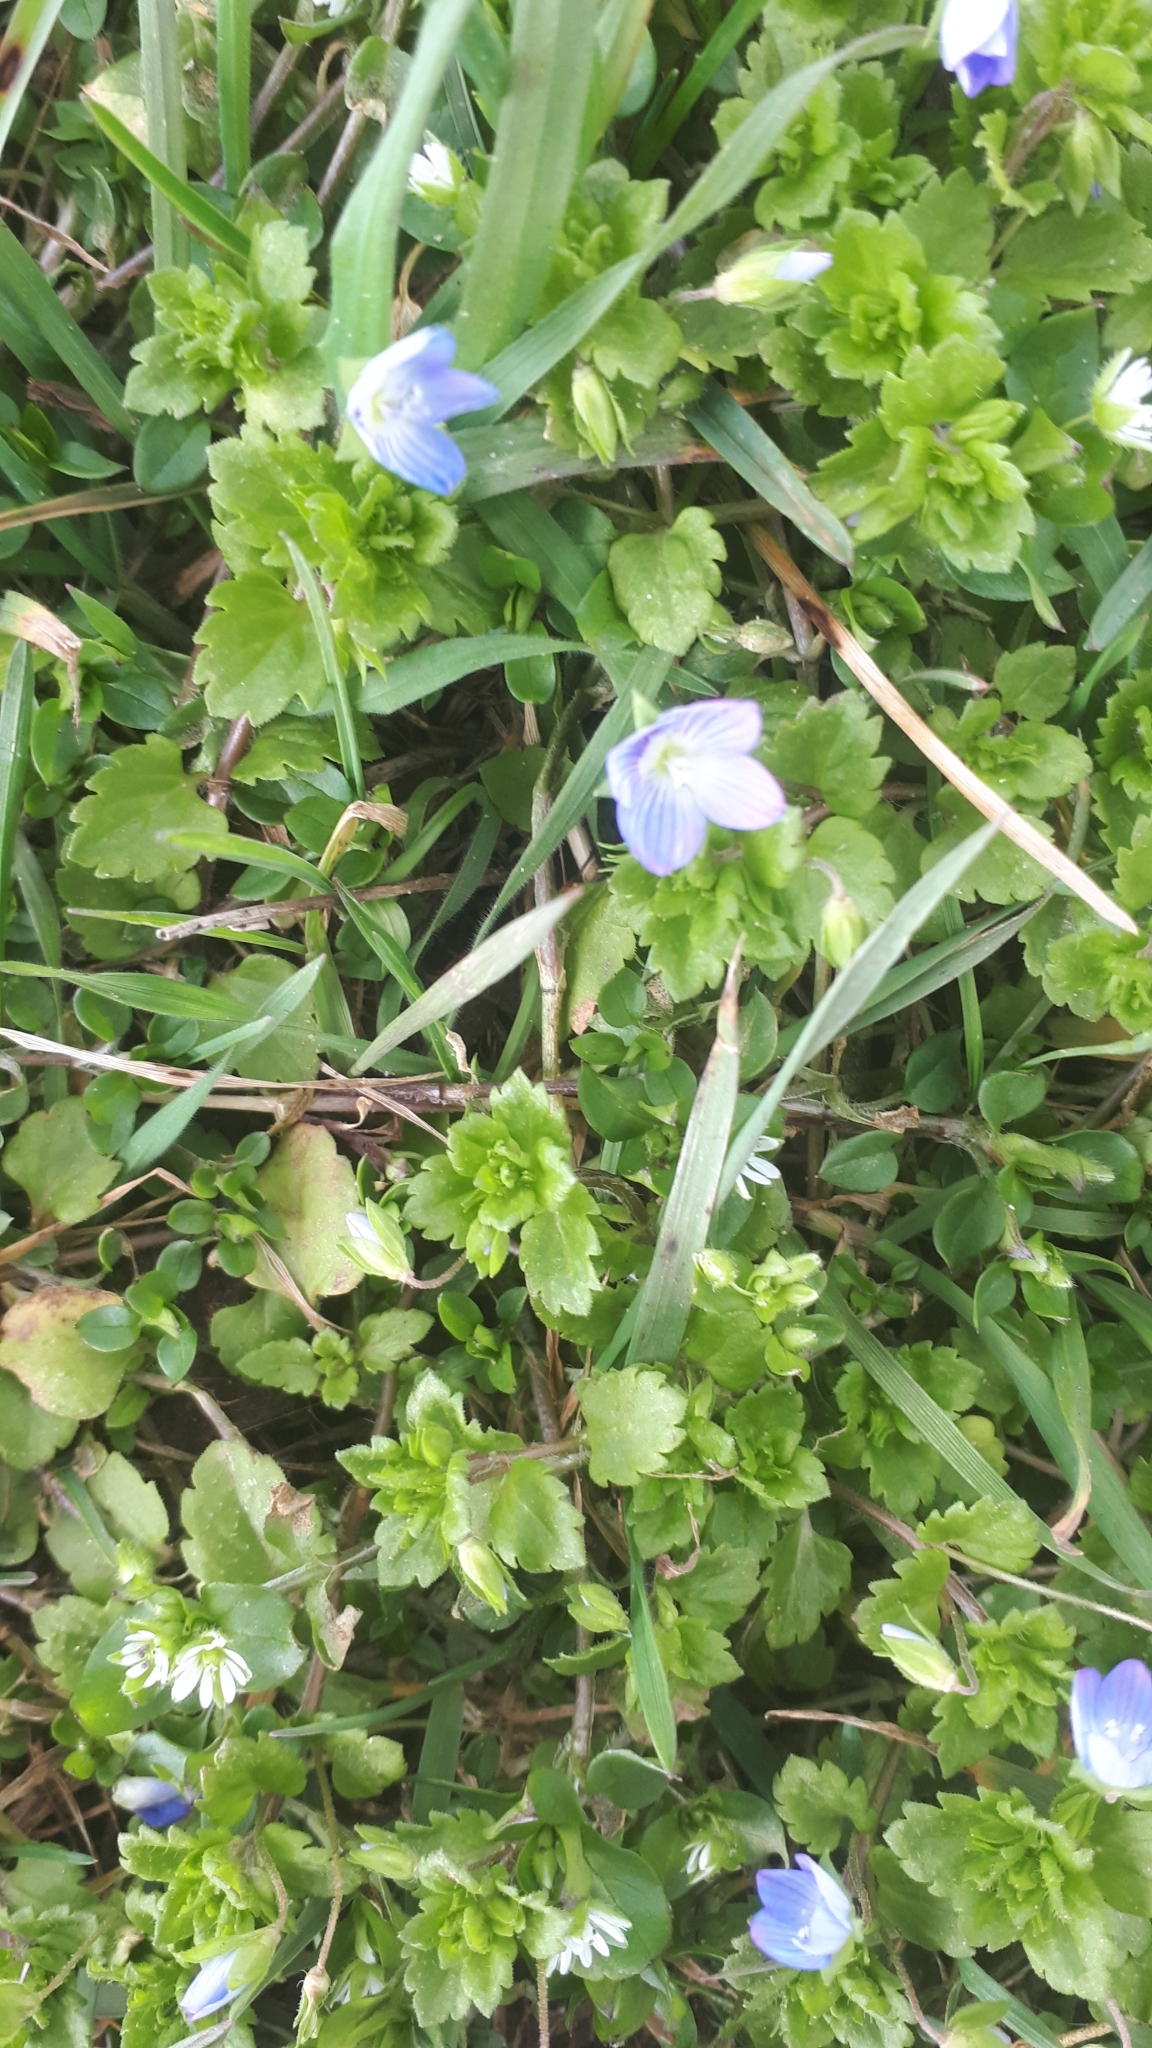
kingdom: Plantae
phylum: Tracheophyta
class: Magnoliopsida
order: Lamiales
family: Plantaginaceae
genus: Veronica
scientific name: Veronica persica
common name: Common field-speedwell
